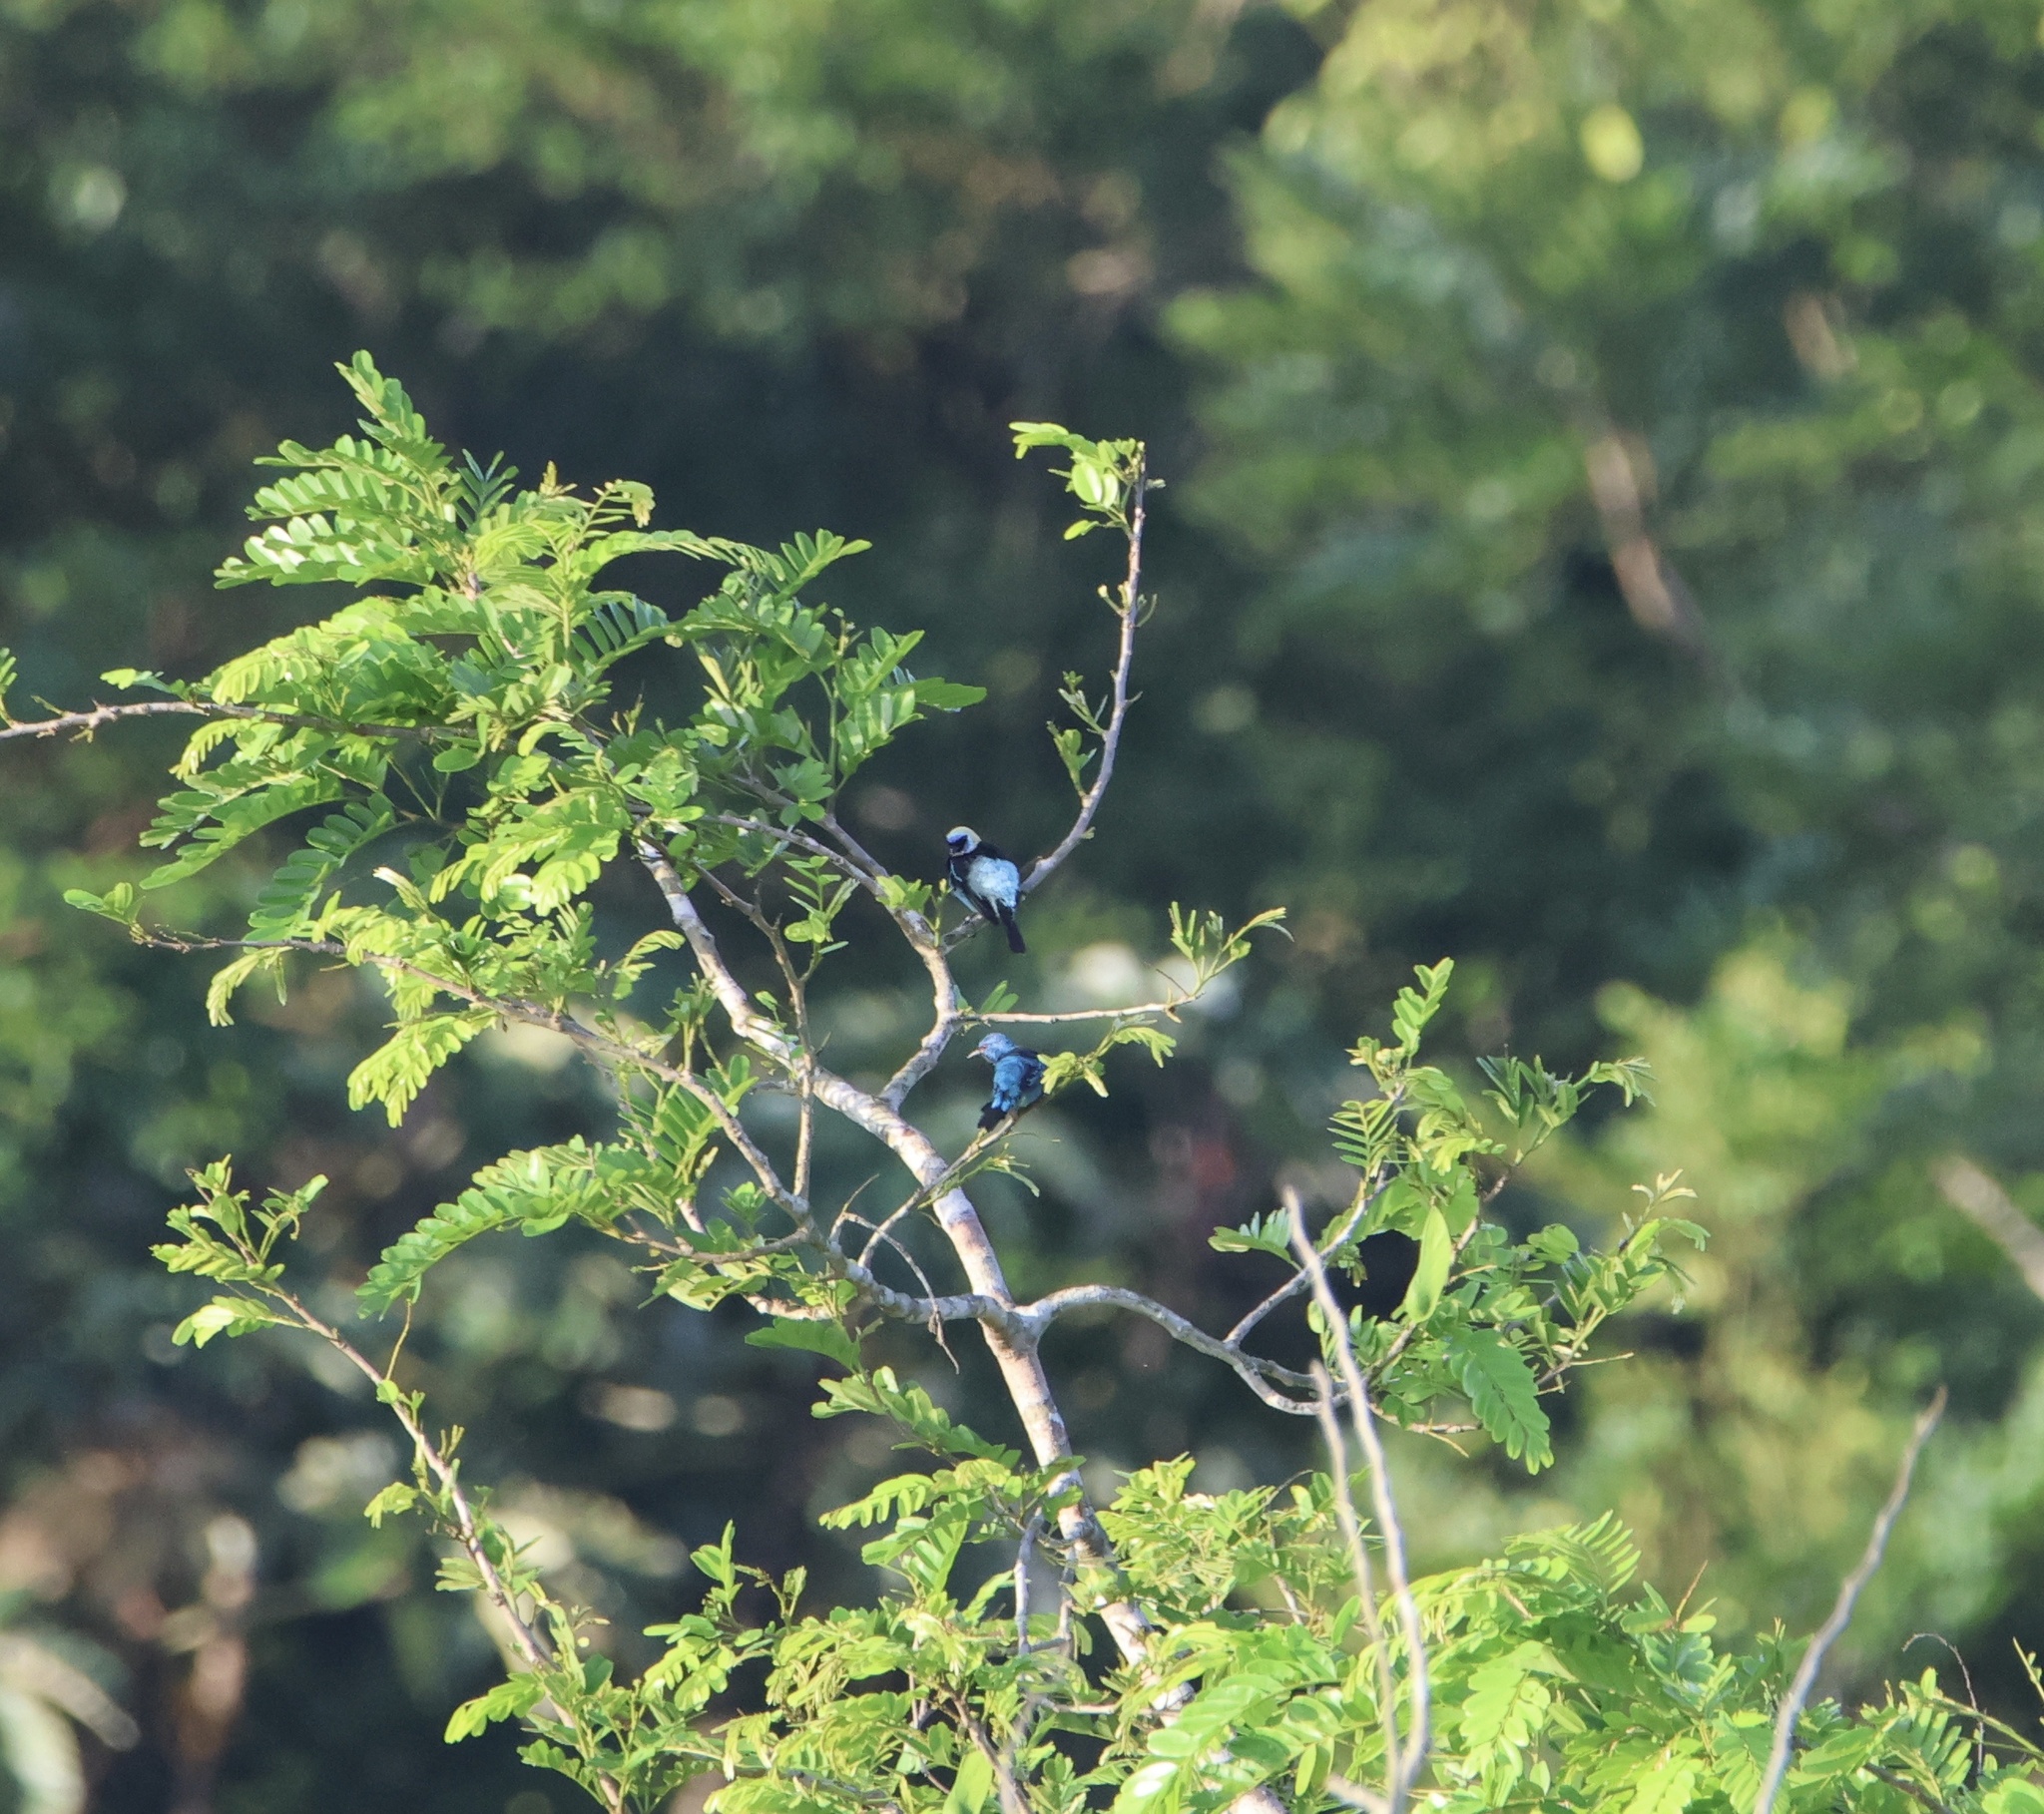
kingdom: Animalia
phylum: Chordata
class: Aves
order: Passeriformes
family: Thraupidae
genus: Stilpnia
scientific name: Stilpnia larvata
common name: Golden-hooded tanager
